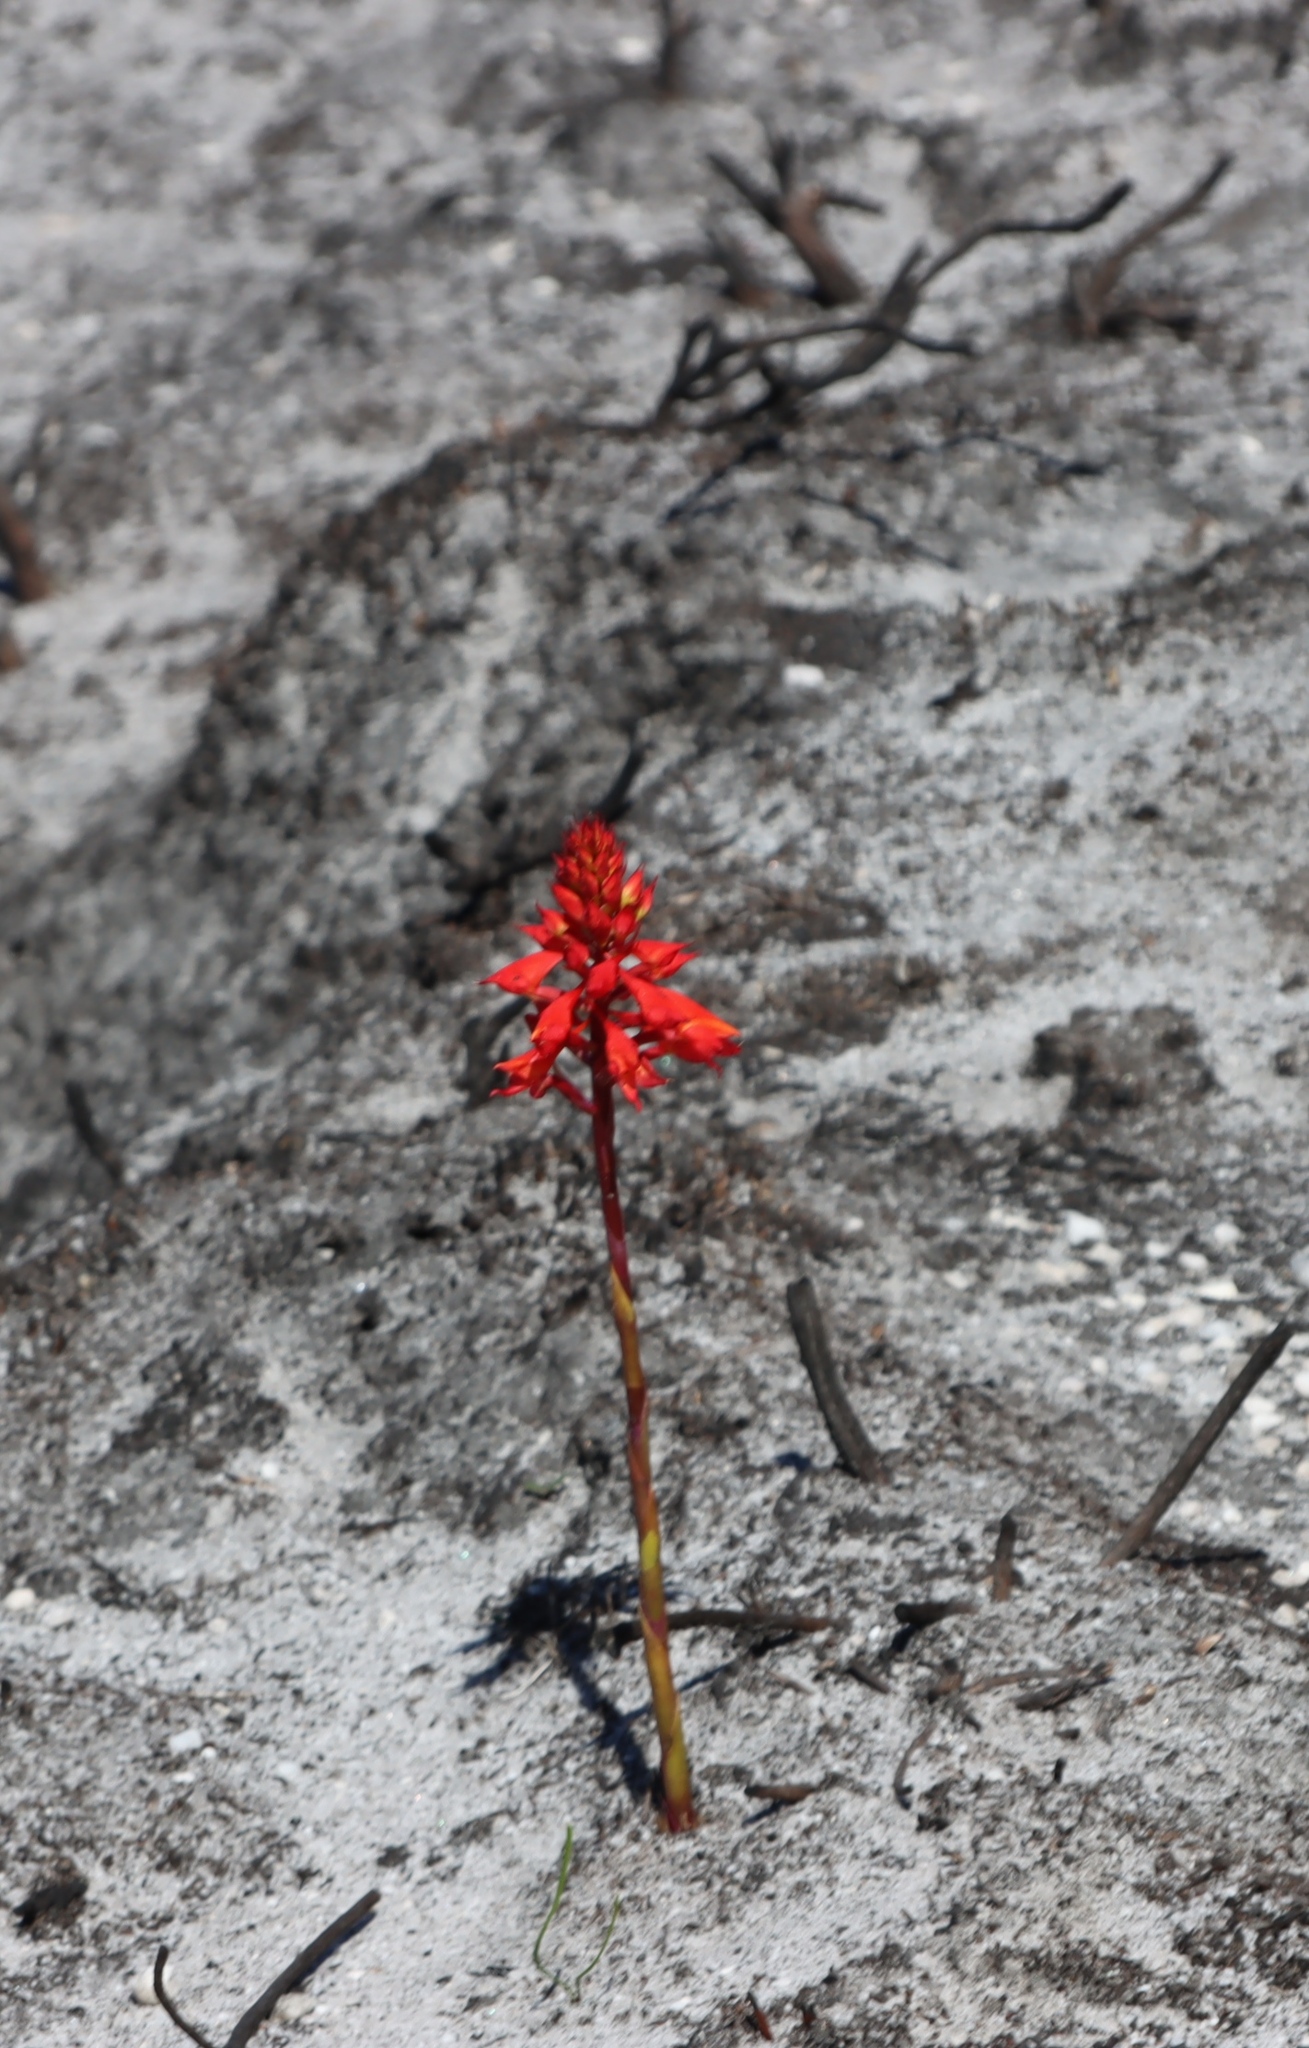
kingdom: Plantae
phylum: Tracheophyta
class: Liliopsida
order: Asparagales
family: Orchidaceae
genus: Disa
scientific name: Disa ferruginea
